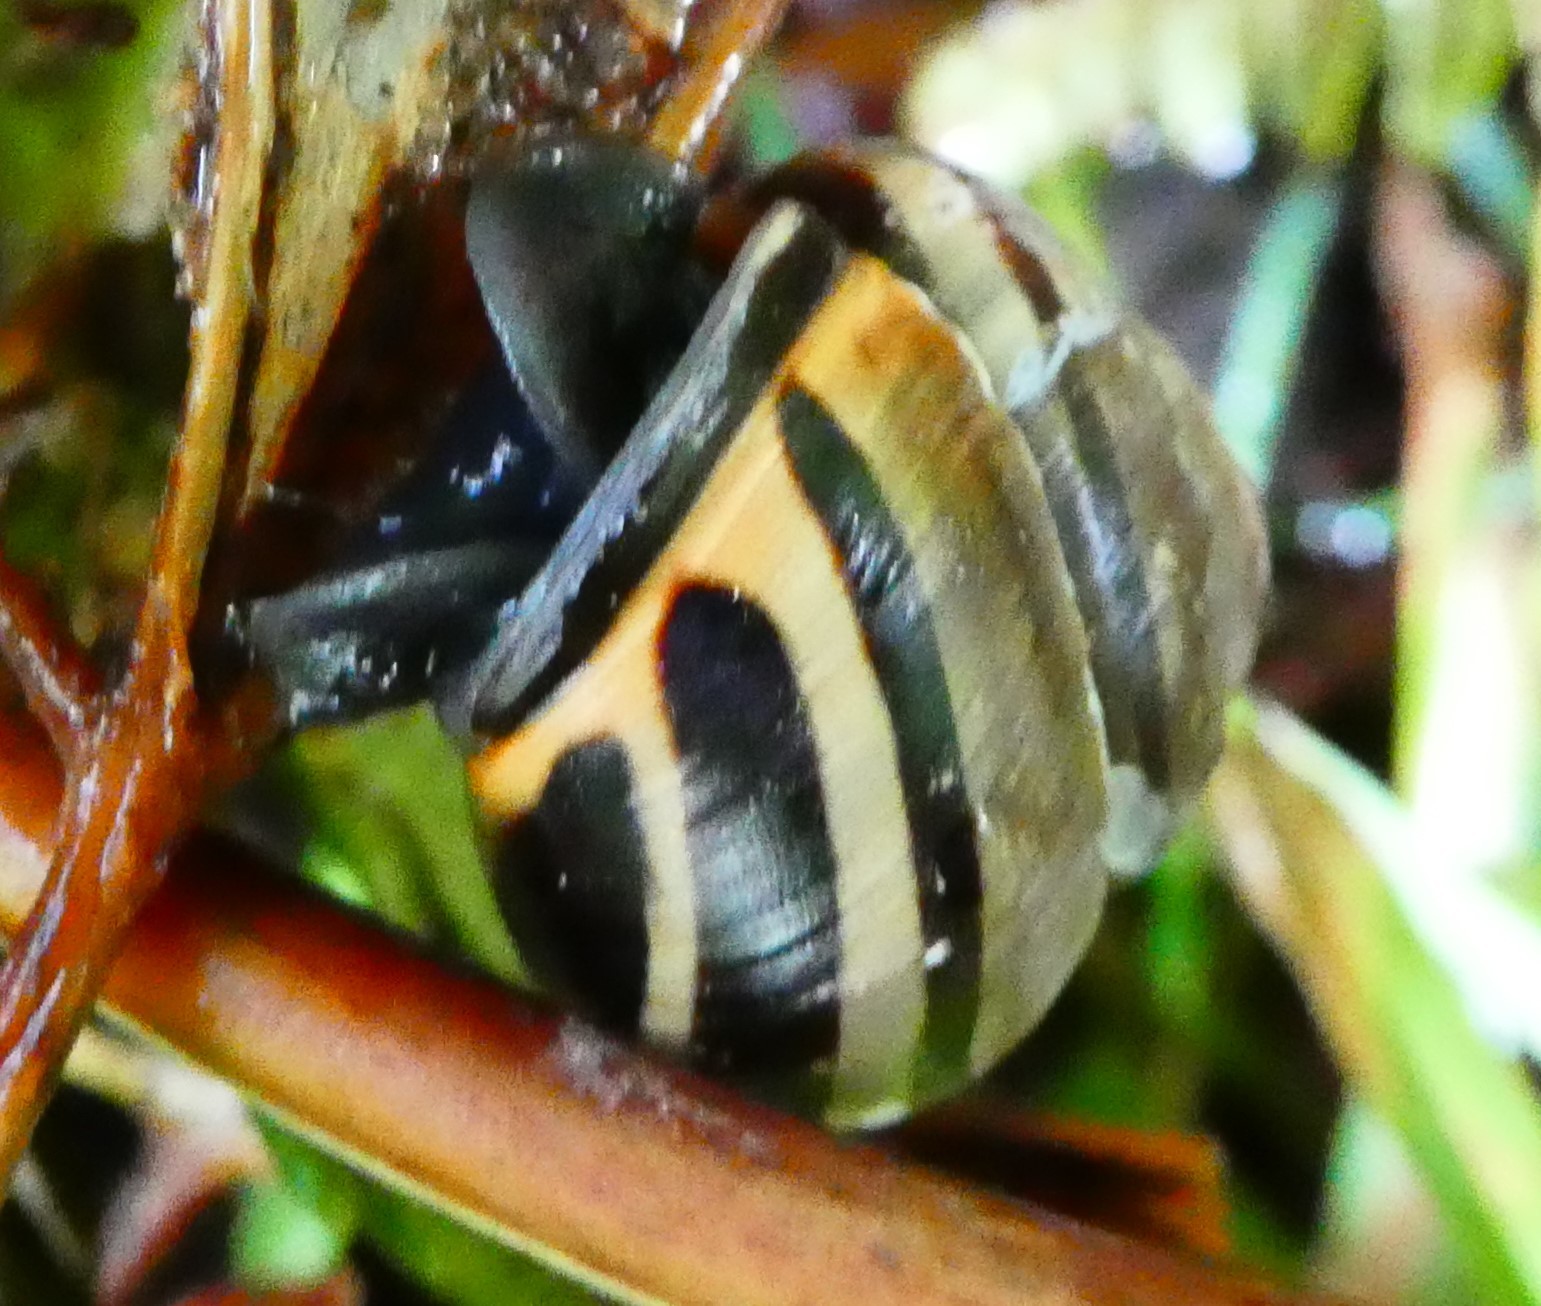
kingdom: Animalia
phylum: Mollusca
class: Gastropoda
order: Stylommatophora
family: Helicidae
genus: Cepaea
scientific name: Cepaea nemoralis
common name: Grovesnail
